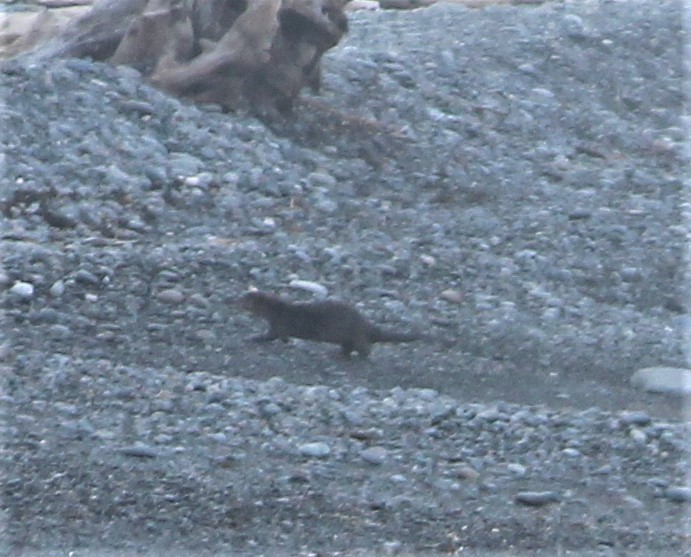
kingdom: Animalia
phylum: Chordata
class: Mammalia
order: Carnivora
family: Mustelidae
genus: Lontra
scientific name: Lontra canadensis
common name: North american river otter
